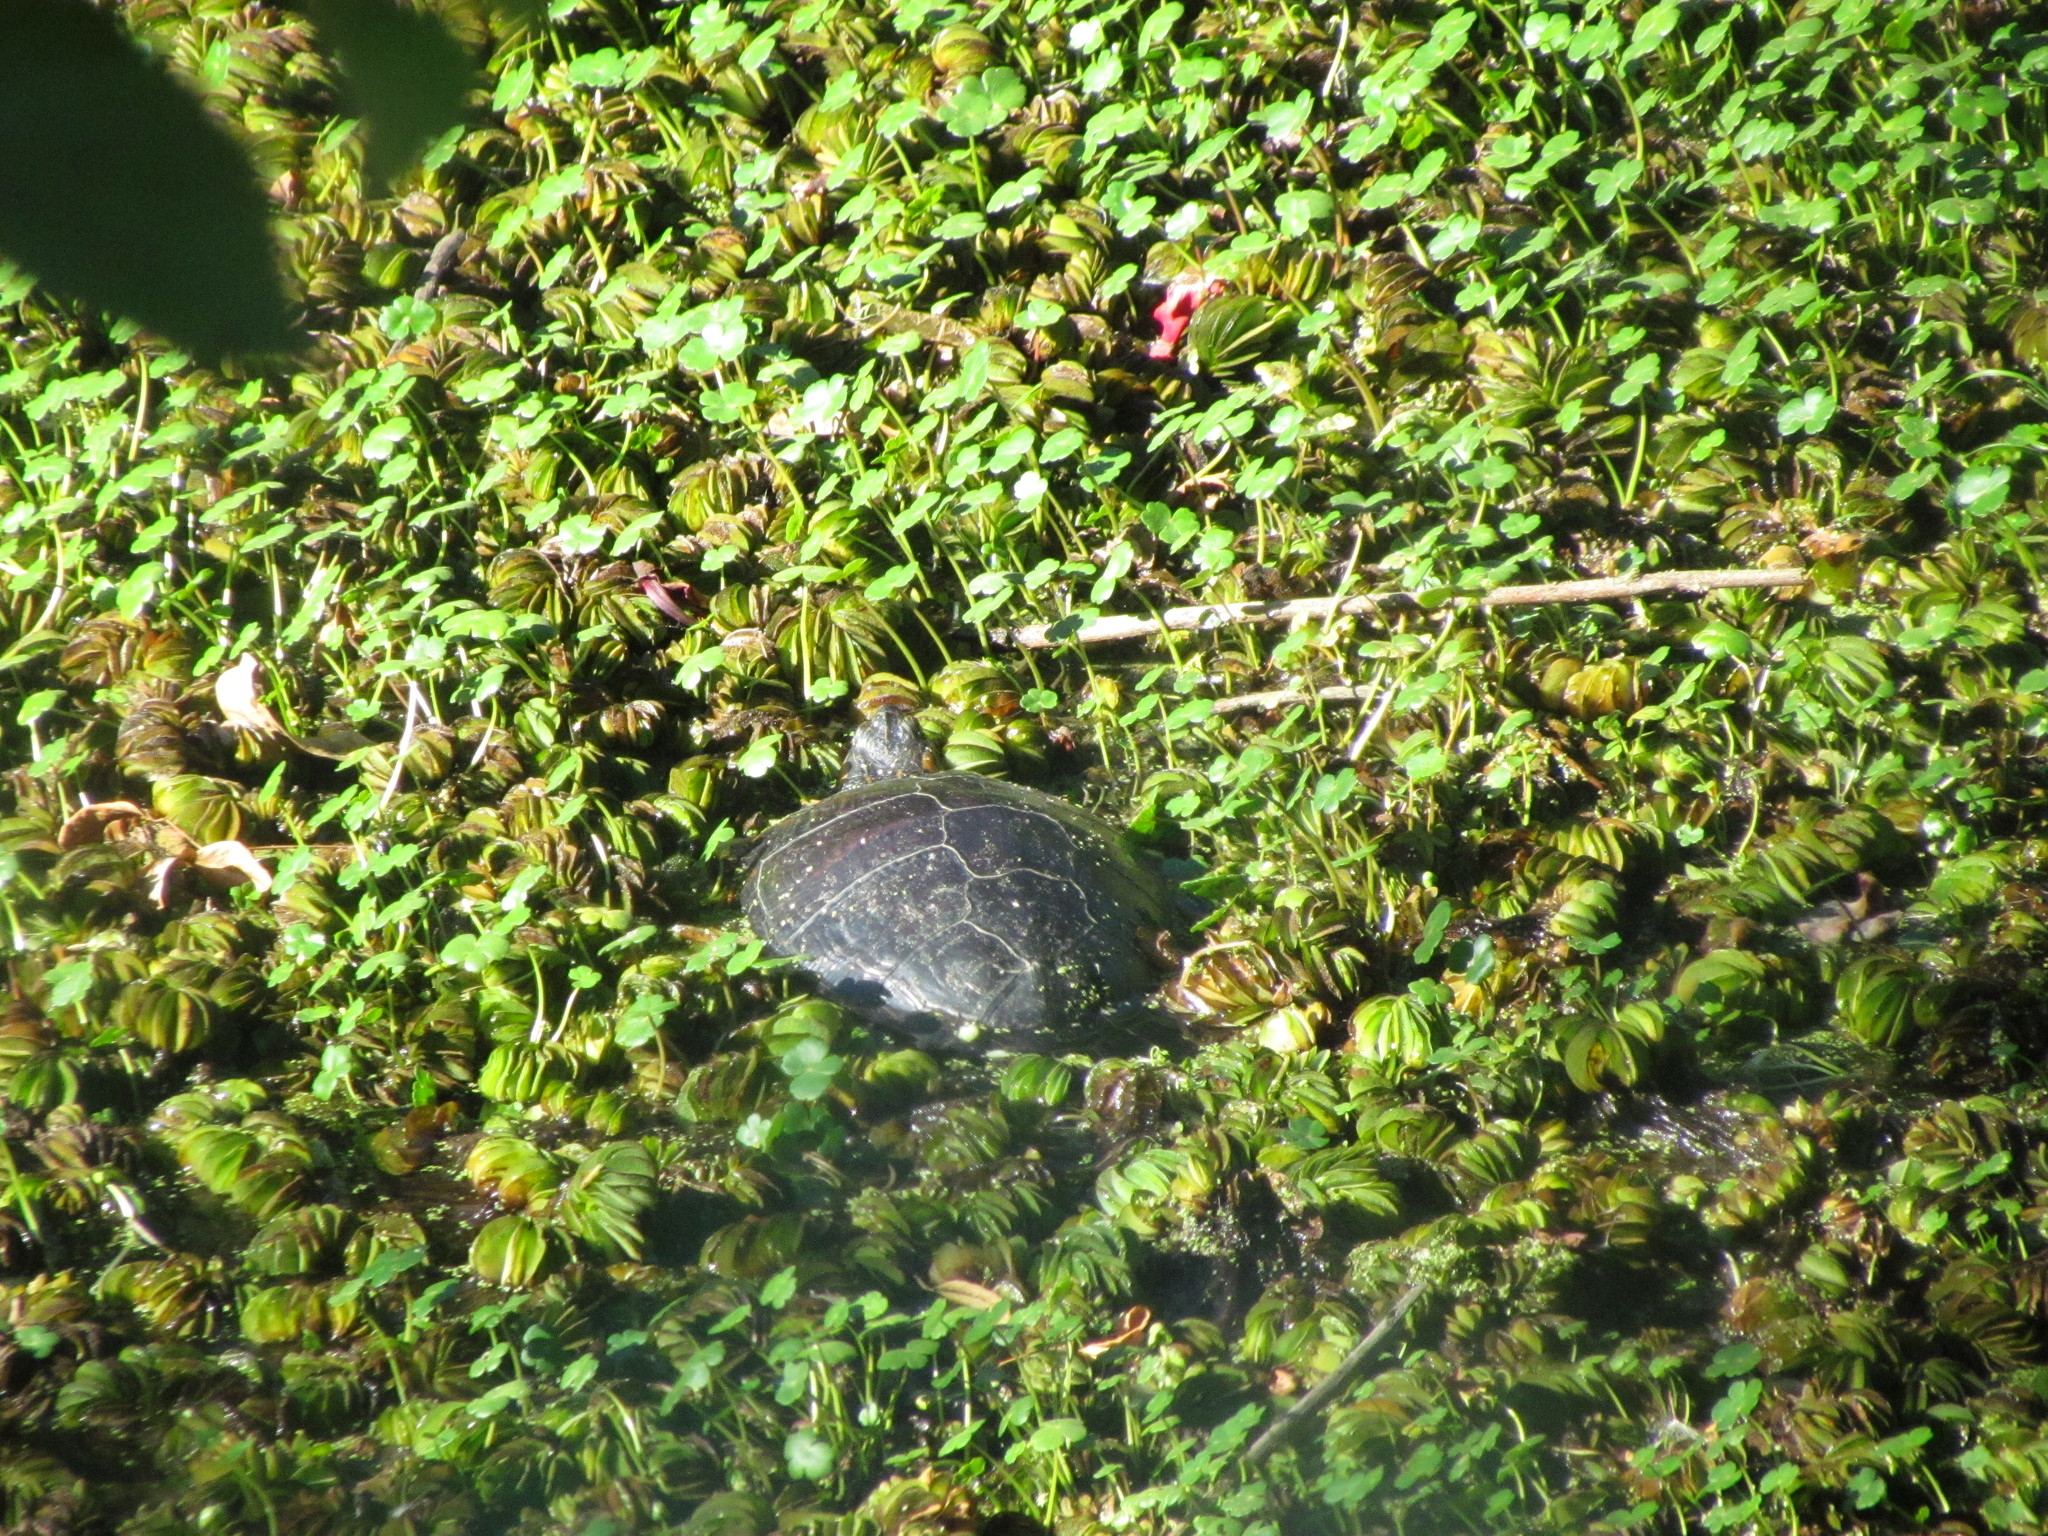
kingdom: Animalia
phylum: Chordata
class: Testudines
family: Emydidae
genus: Trachemys
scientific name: Trachemys dorbigni
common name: Black-bellied slider
